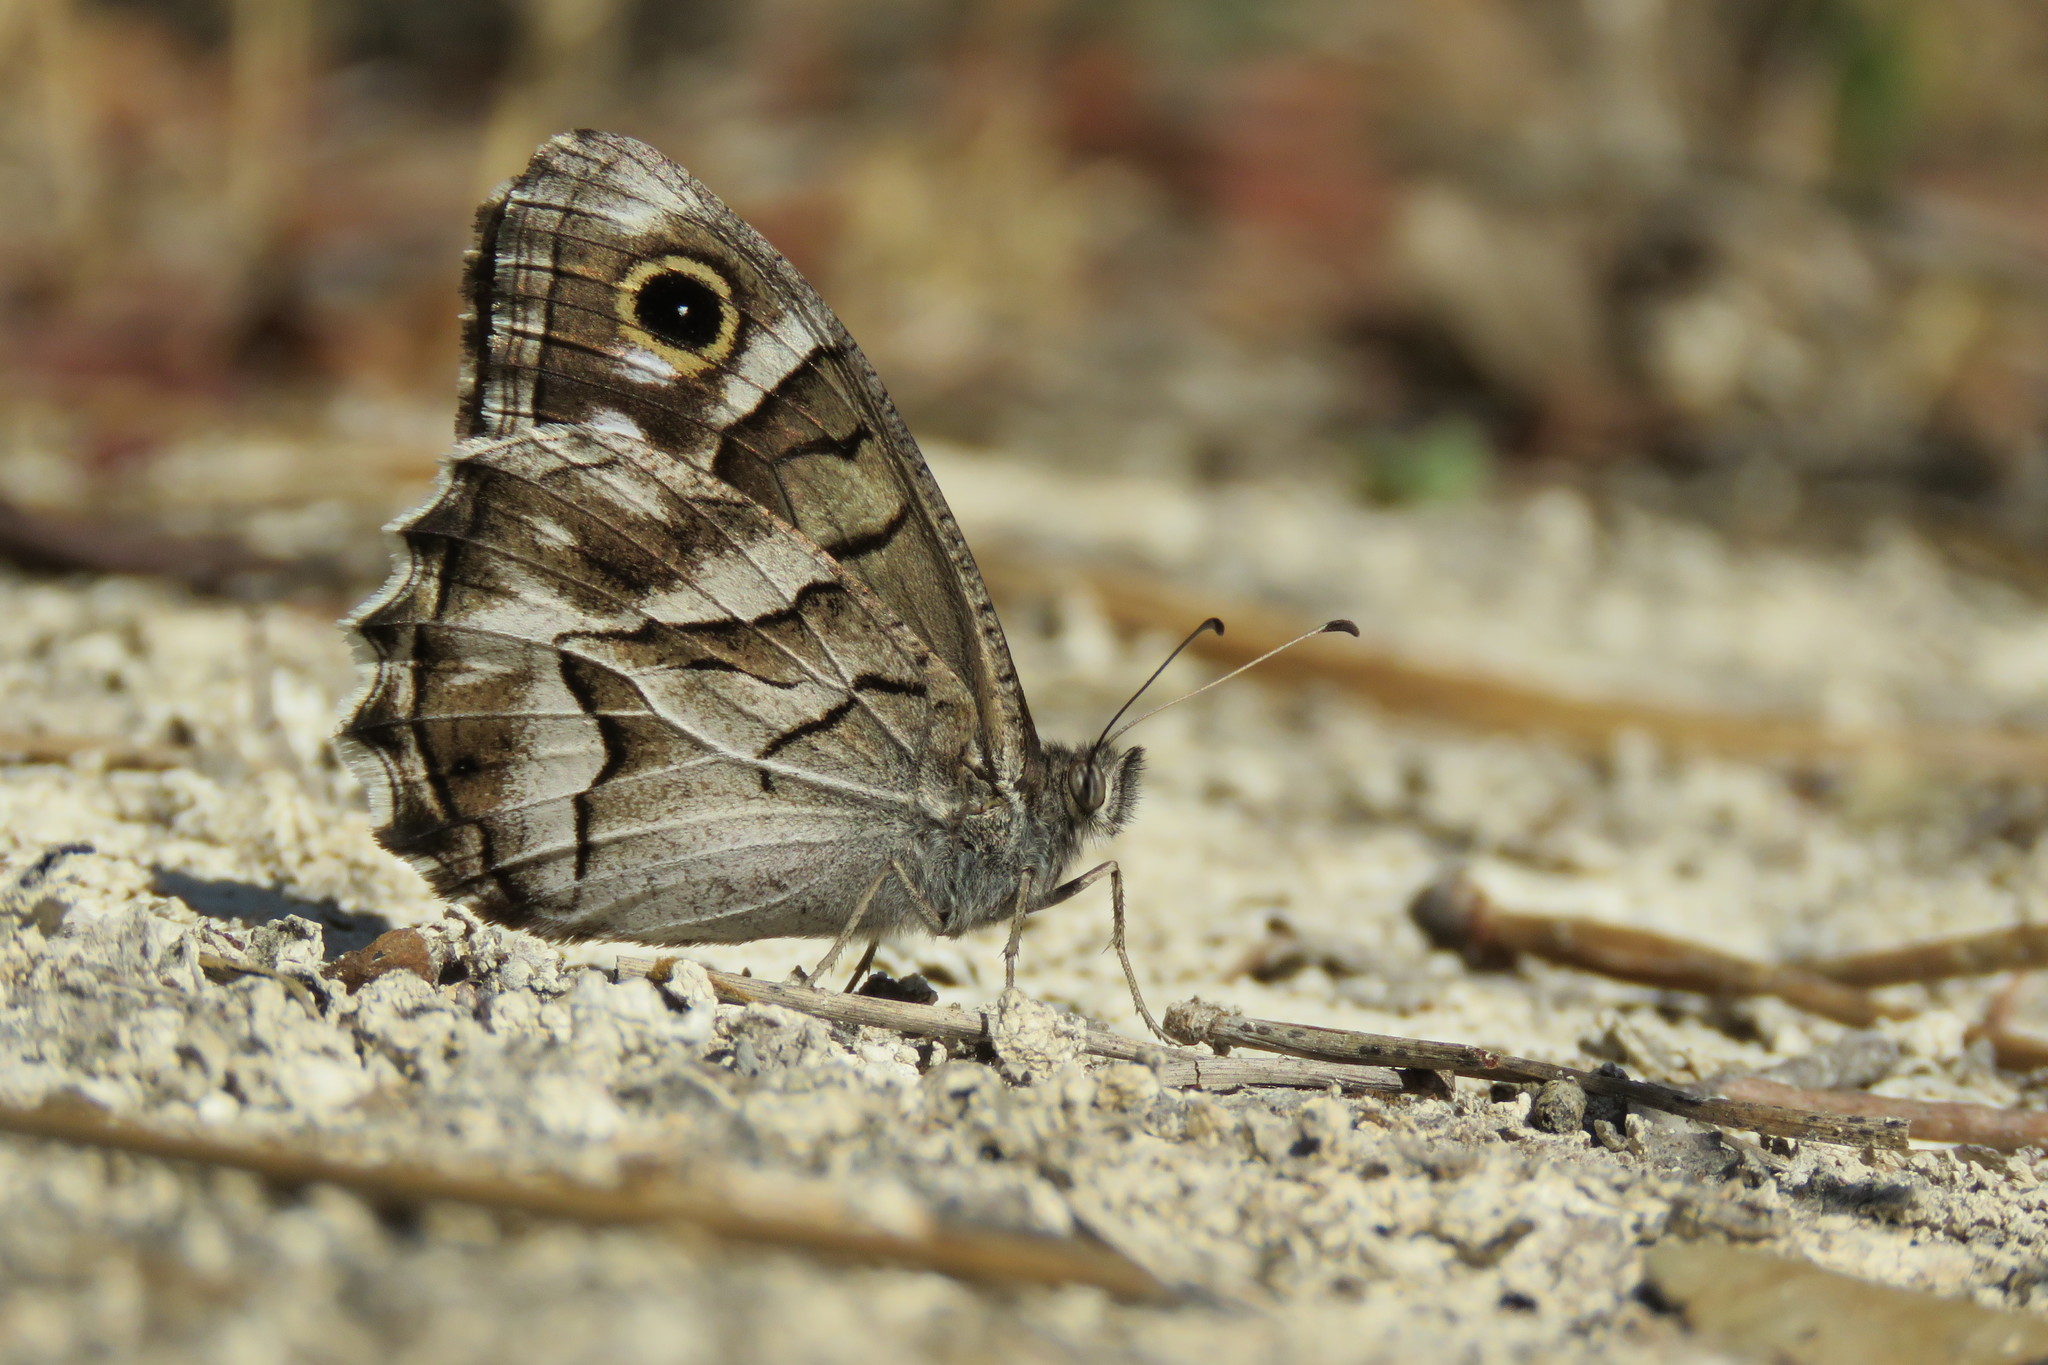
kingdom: Animalia
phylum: Arthropoda
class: Insecta
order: Lepidoptera
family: Nymphalidae
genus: Hipparchia
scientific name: Hipparchia fidia
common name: Striped grayling
